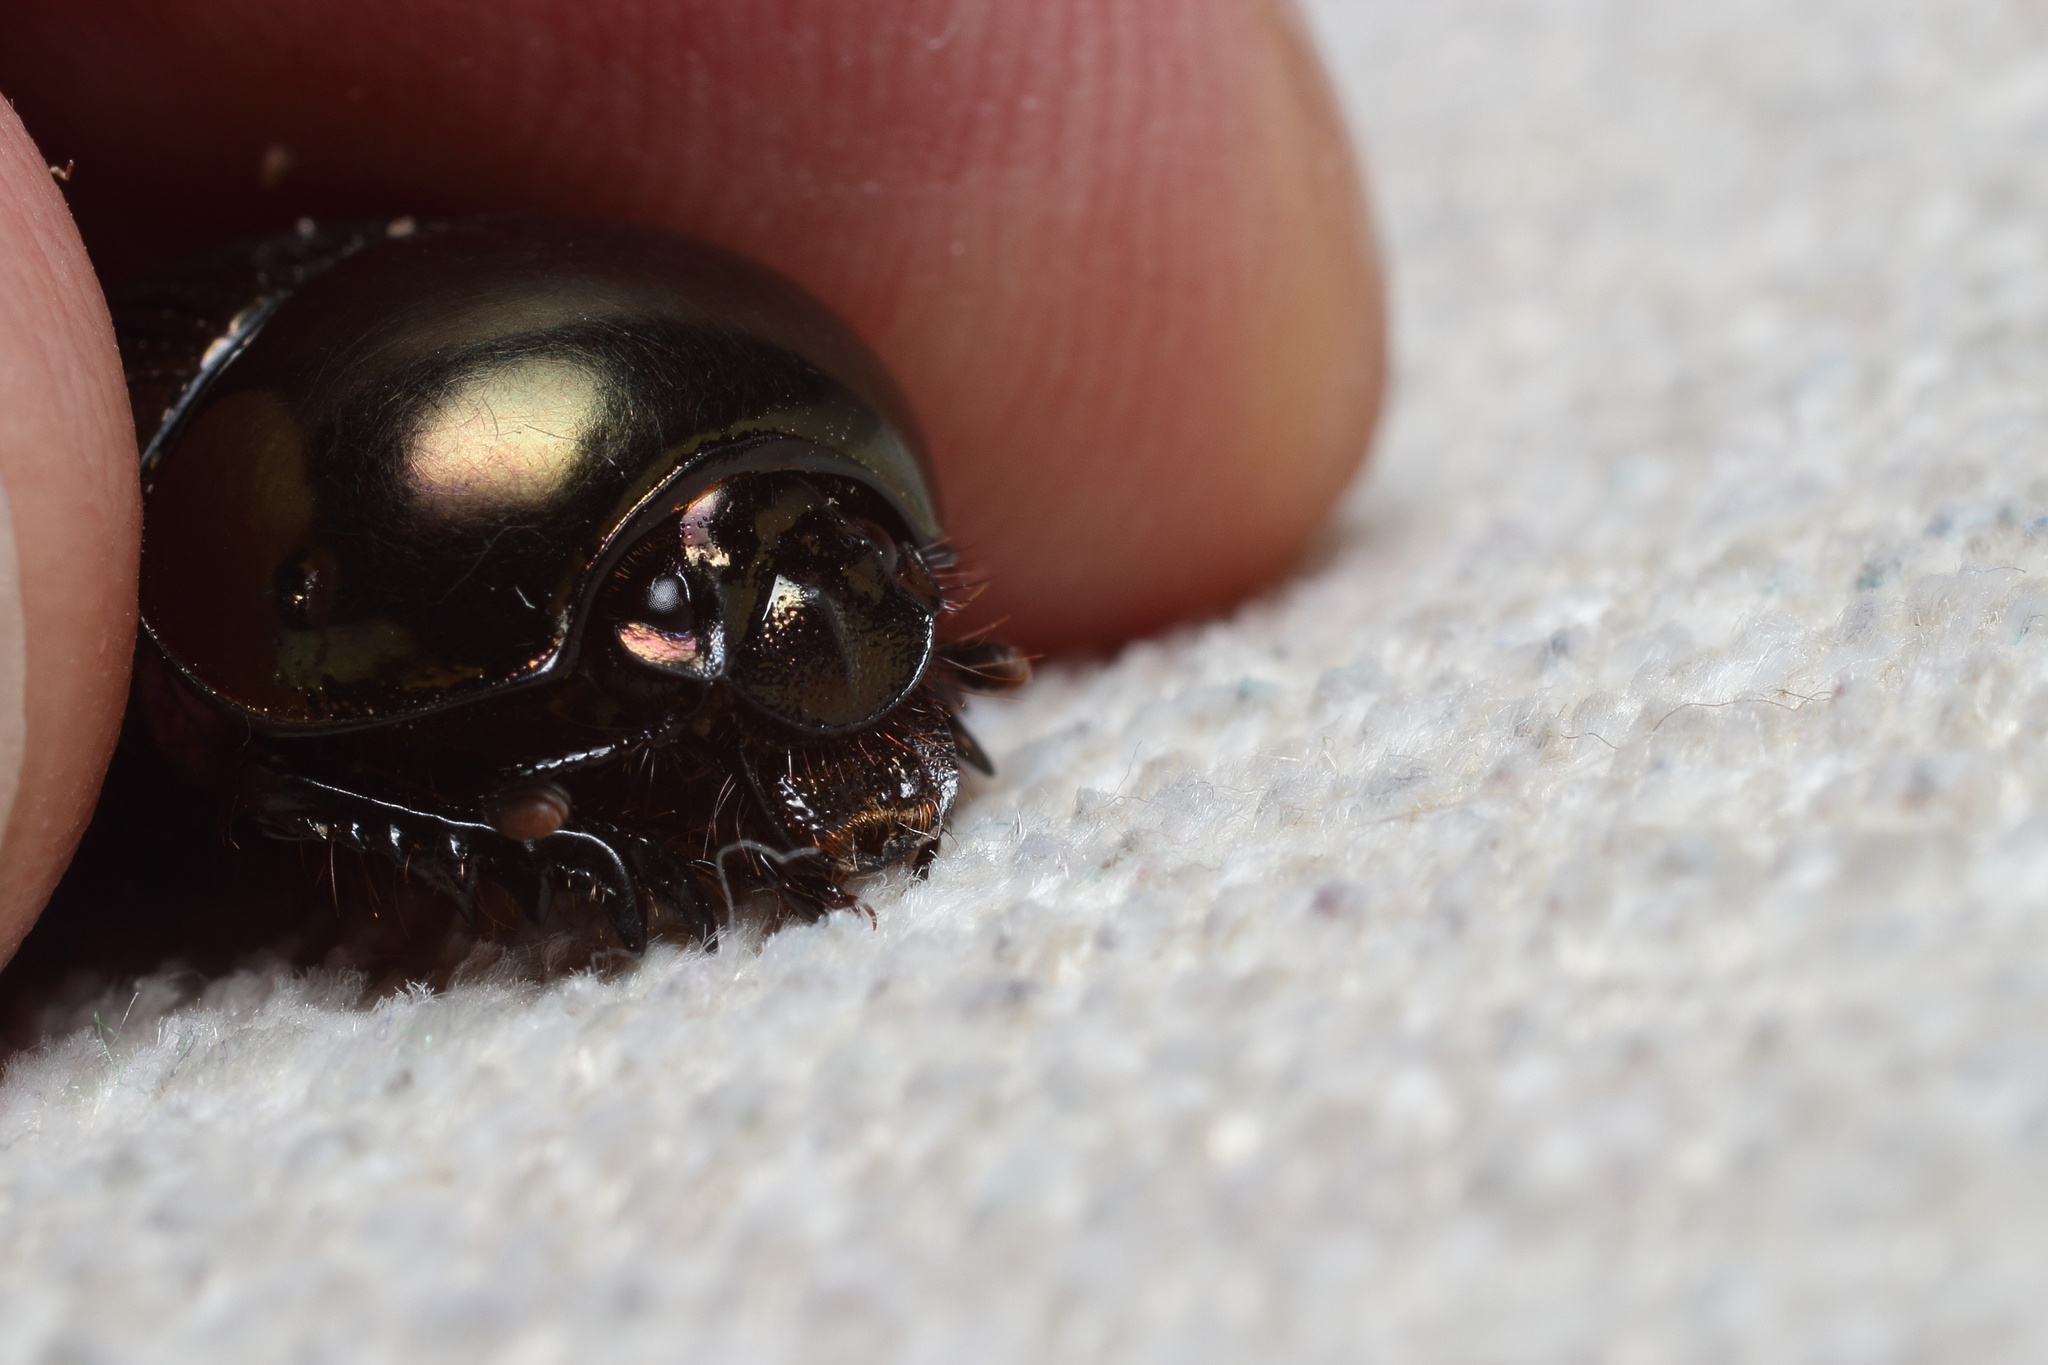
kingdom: Animalia
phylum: Arthropoda
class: Insecta
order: Coleoptera
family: Geotrupidae
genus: Phelotrupes
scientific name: Phelotrupes laevistriatus
